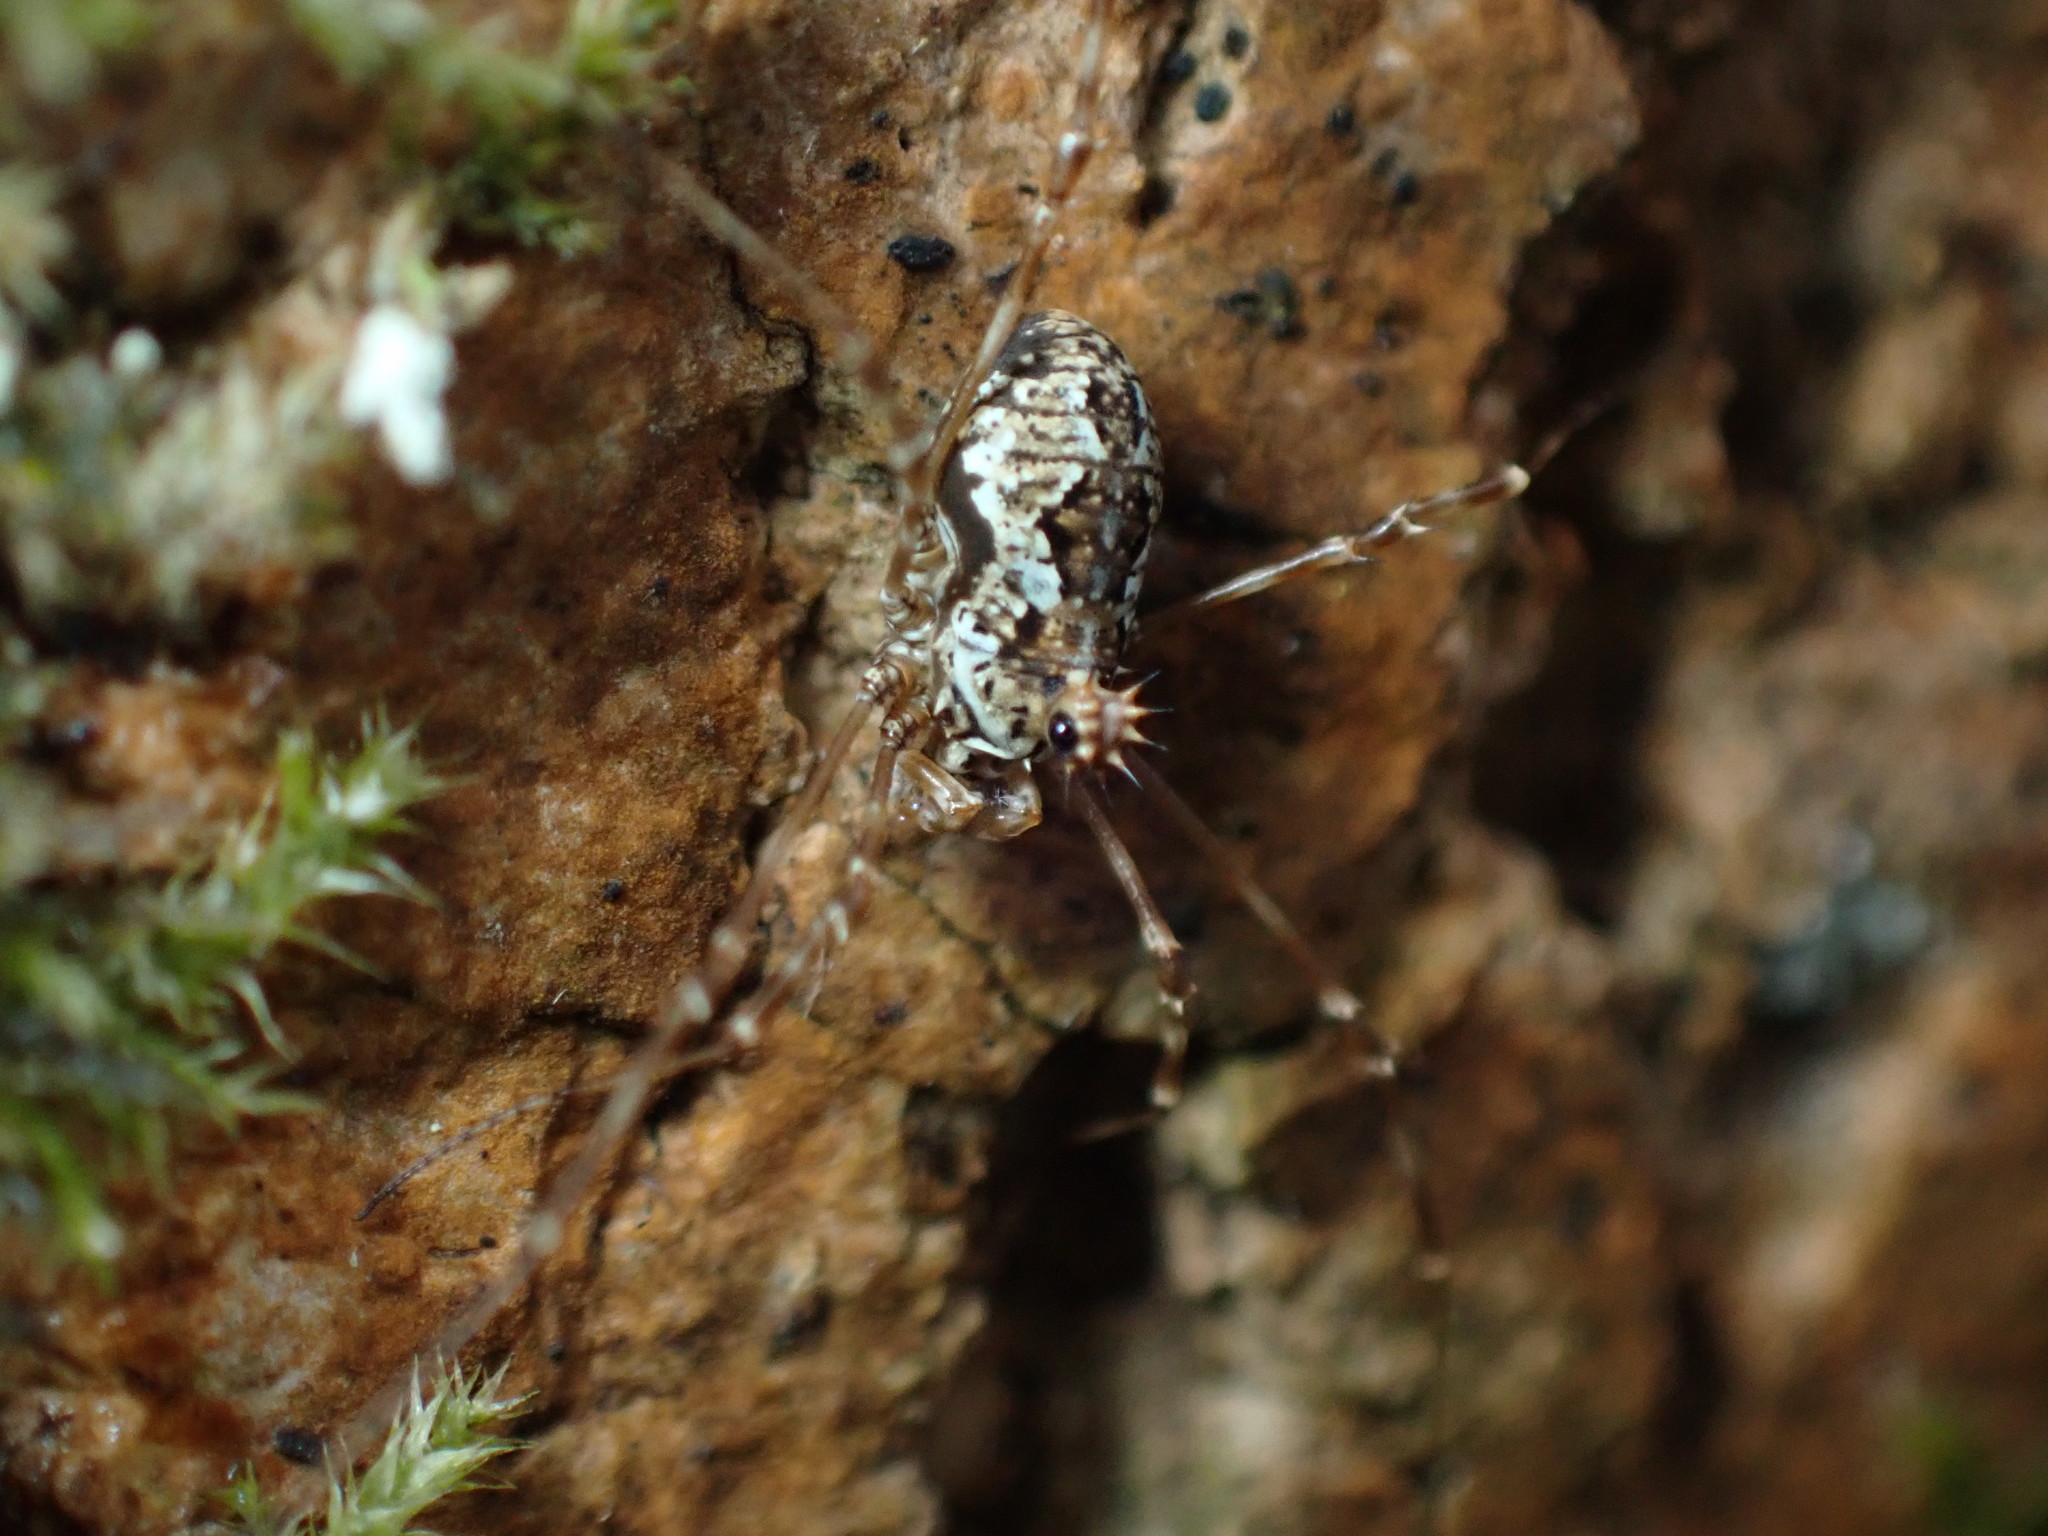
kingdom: Animalia
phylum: Arthropoda
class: Arachnida
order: Opiliones
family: Phalangiidae
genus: Megabunus
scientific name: Megabunus diadema
